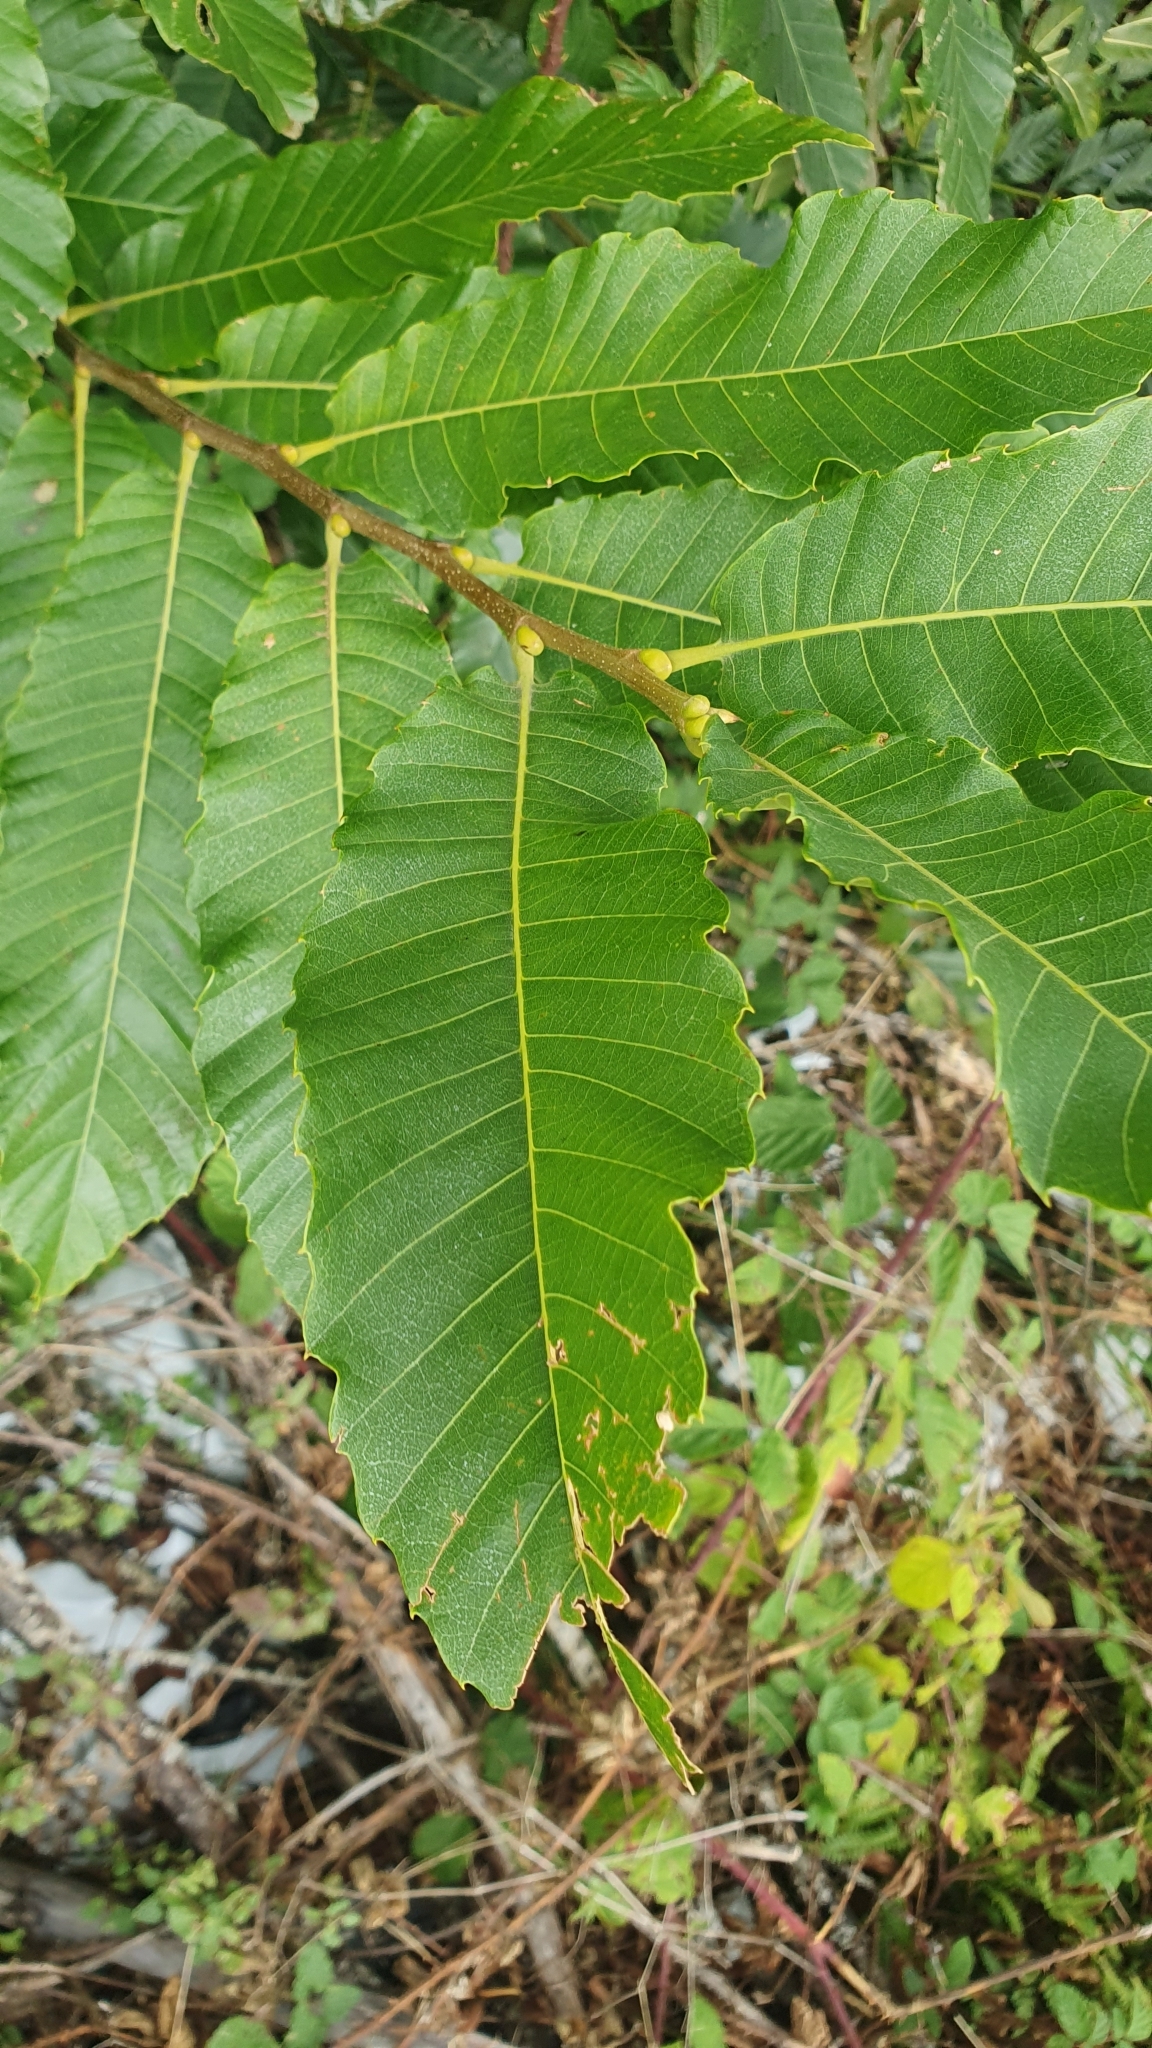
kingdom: Plantae
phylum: Tracheophyta
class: Magnoliopsida
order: Fagales
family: Fagaceae
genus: Castanea
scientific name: Castanea sativa
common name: Sweet chestnut
